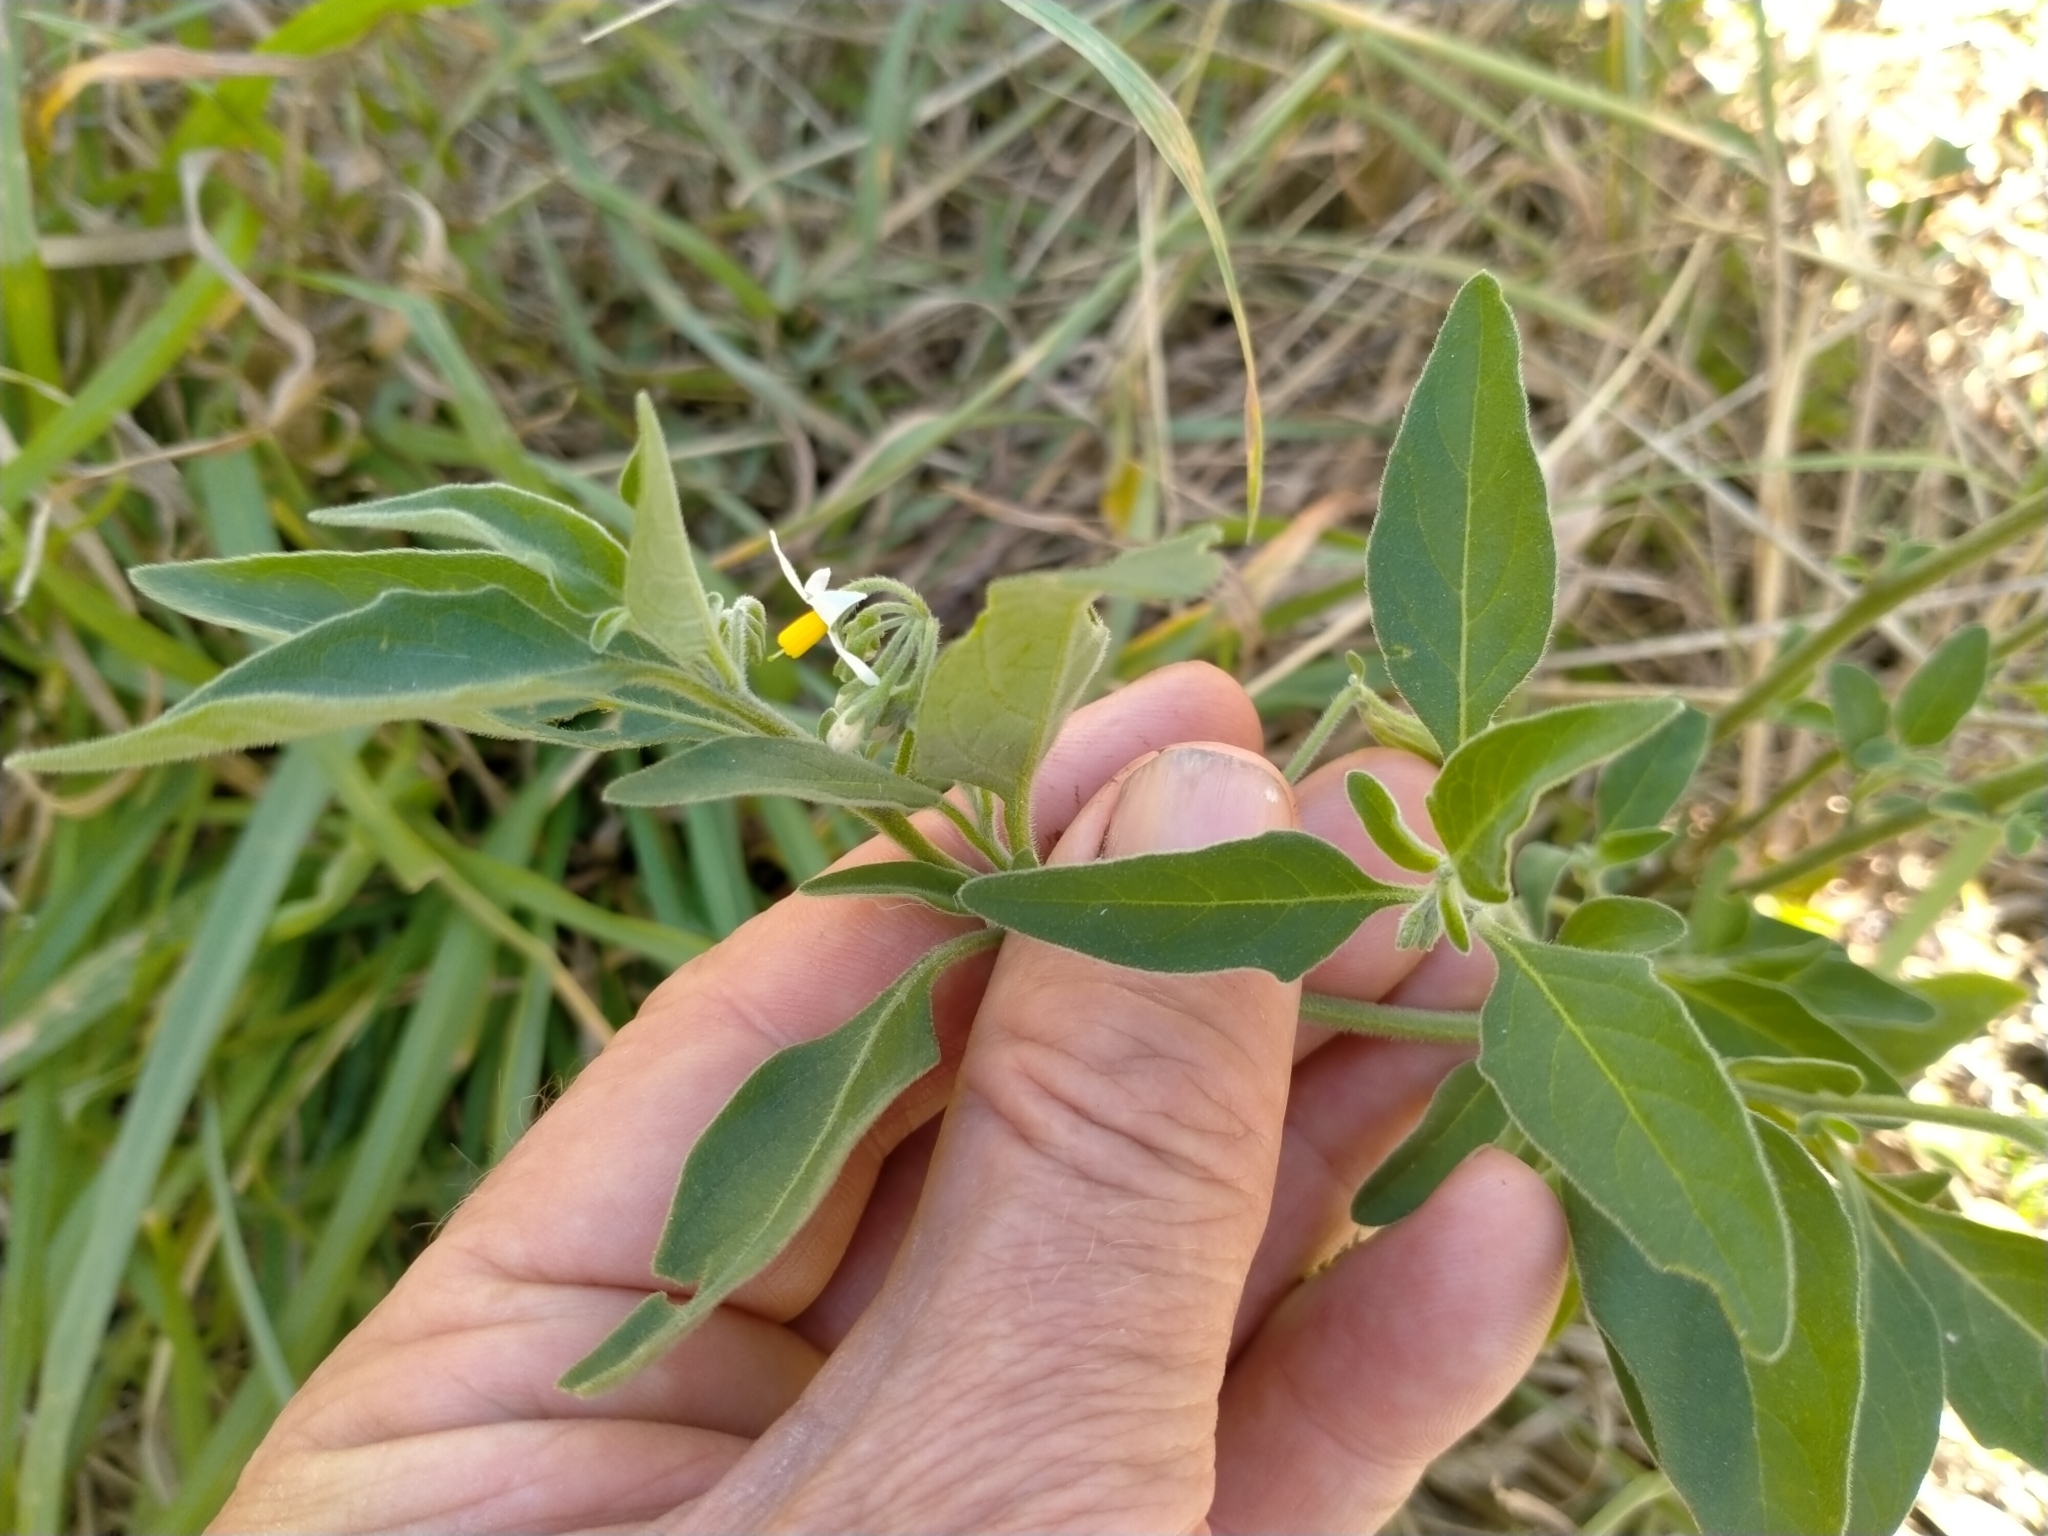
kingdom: Plantae
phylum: Tracheophyta
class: Magnoliopsida
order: Solanales
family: Solanaceae
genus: Solanum
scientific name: Solanum chenopodioides
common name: Tall nightshade
